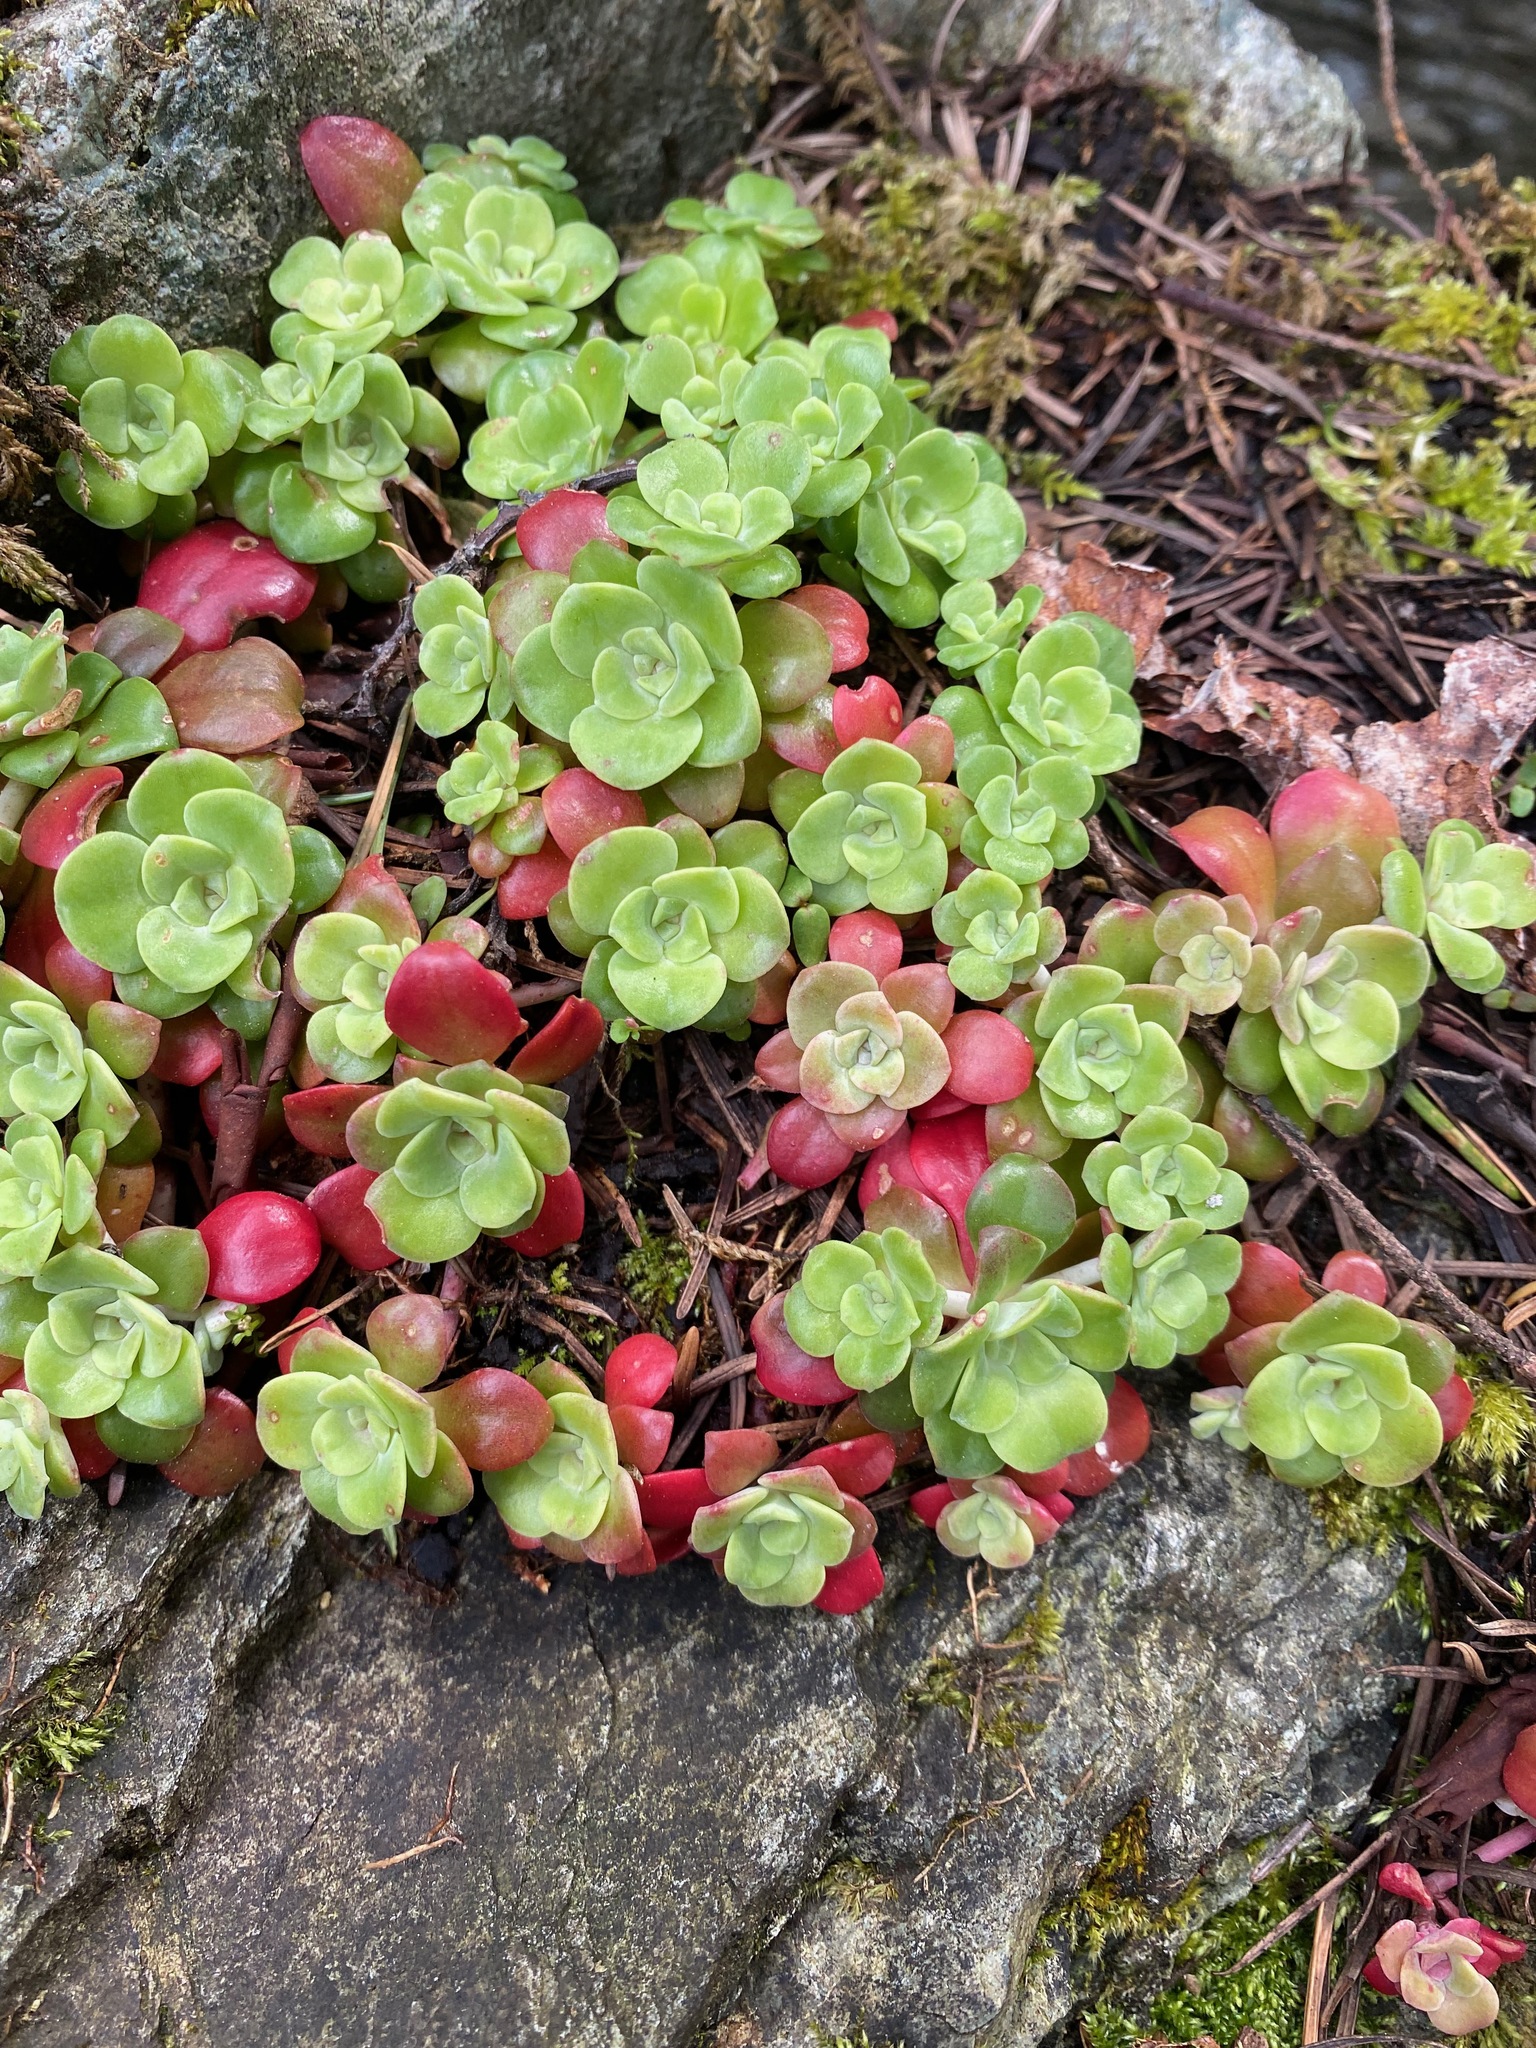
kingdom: Plantae
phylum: Tracheophyta
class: Magnoliopsida
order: Saxifragales
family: Crassulaceae
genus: Sedum
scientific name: Sedum spathulifolium
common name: Colorado stonecrop
